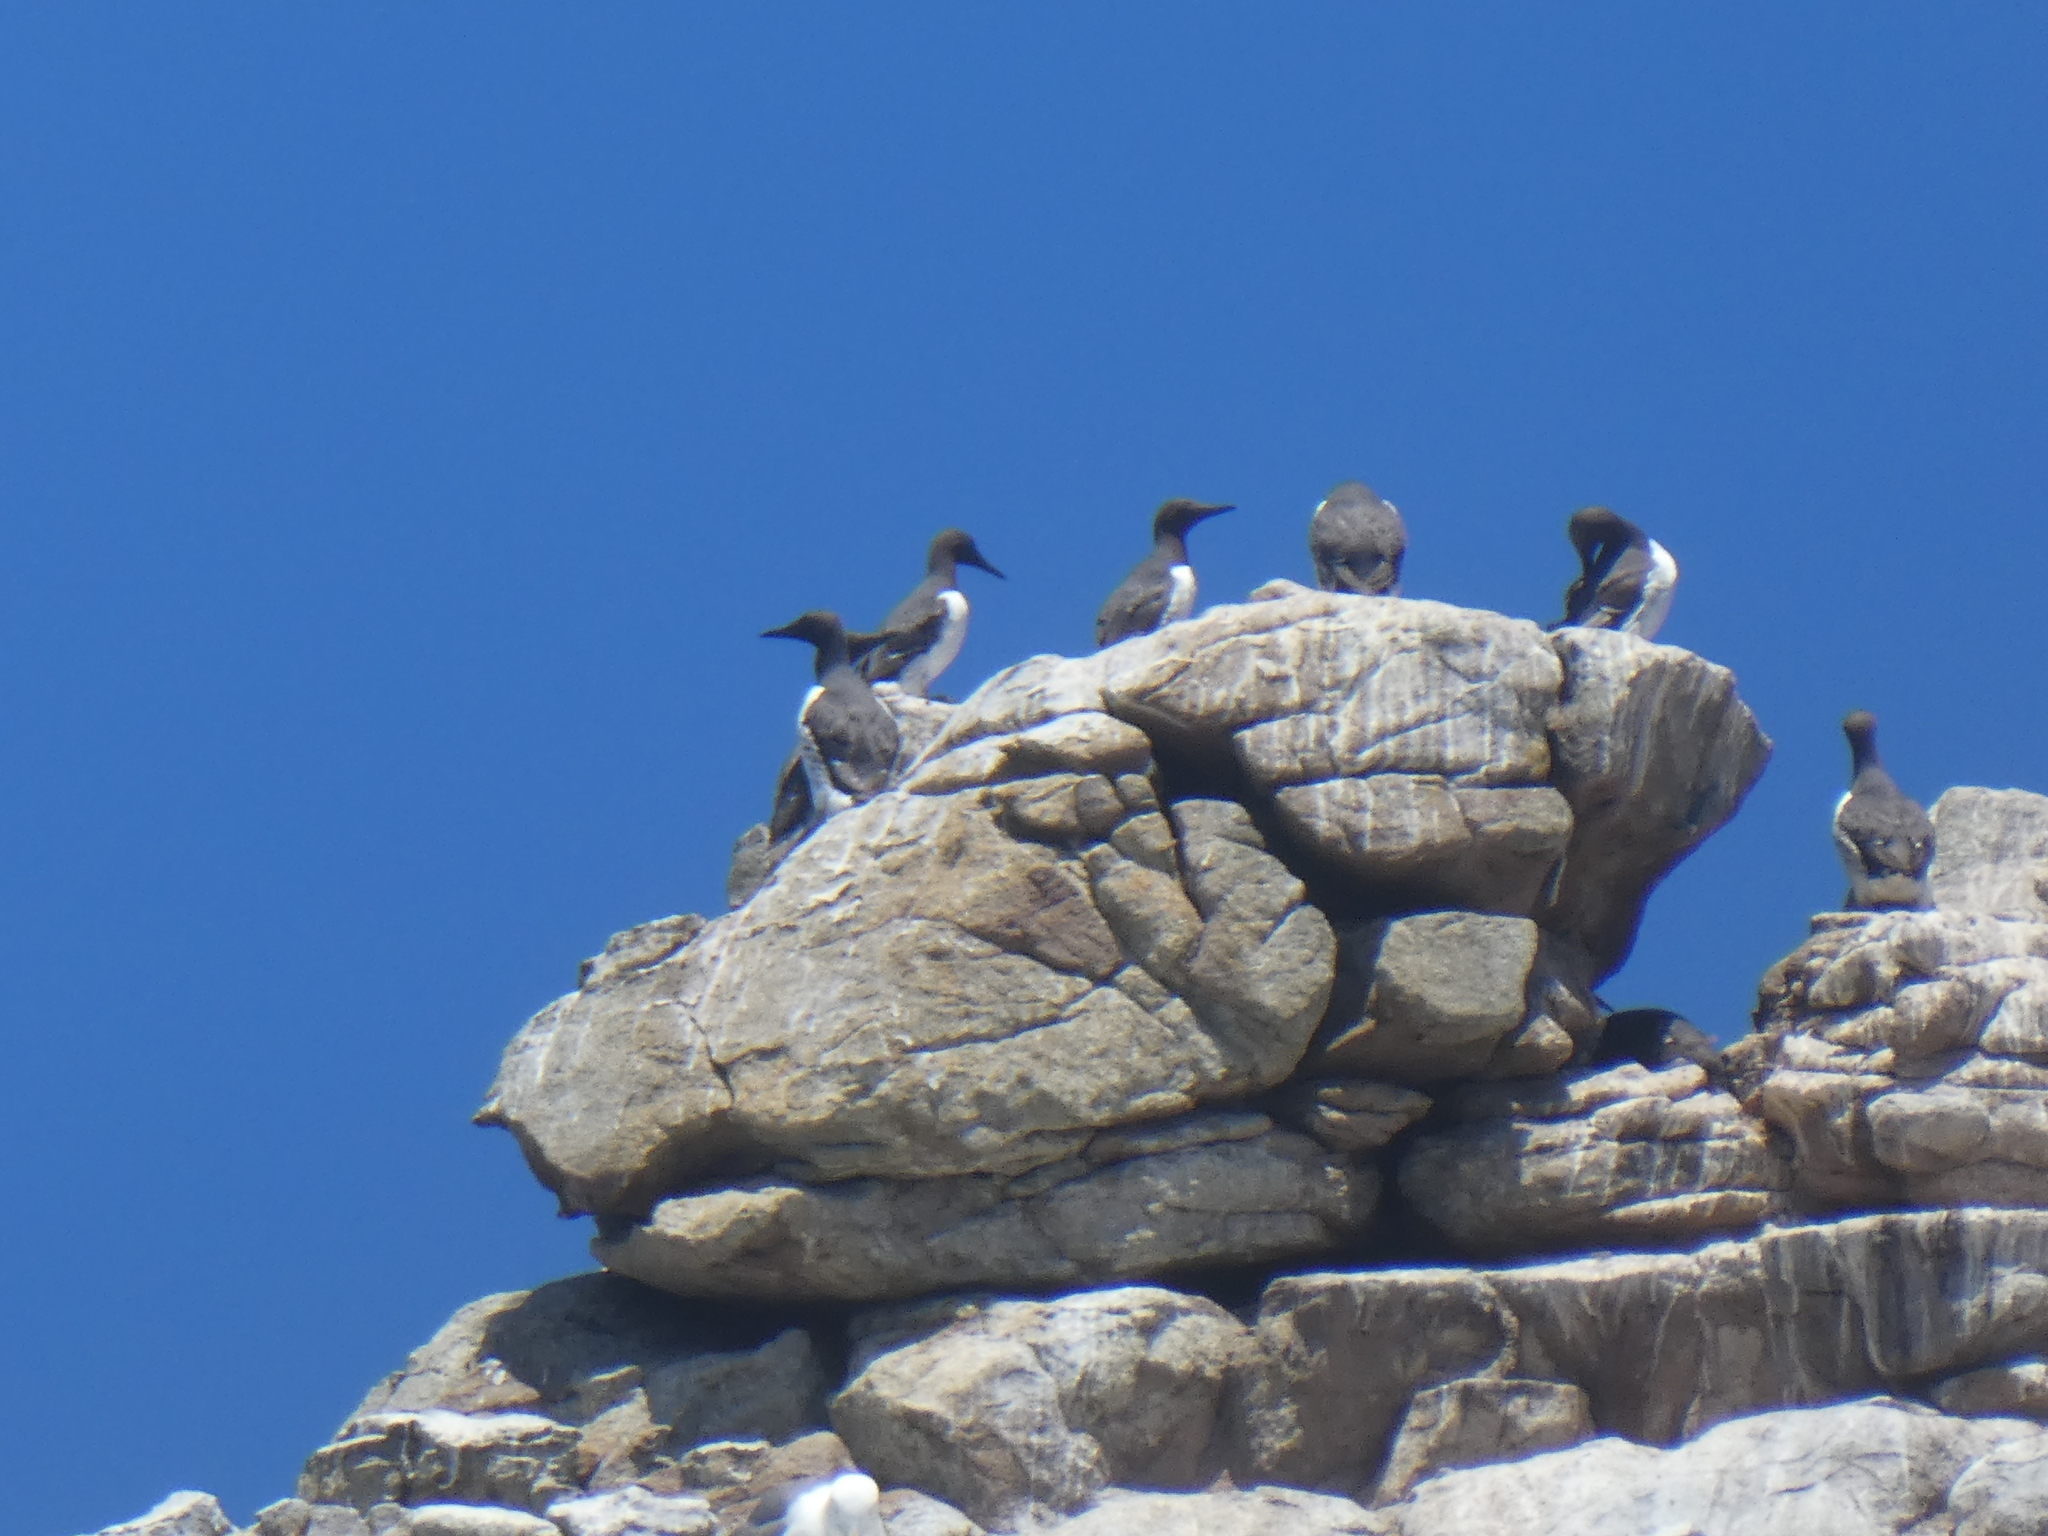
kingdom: Animalia
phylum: Chordata
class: Aves
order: Charadriiformes
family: Alcidae
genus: Uria
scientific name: Uria aalge
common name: Common murre
